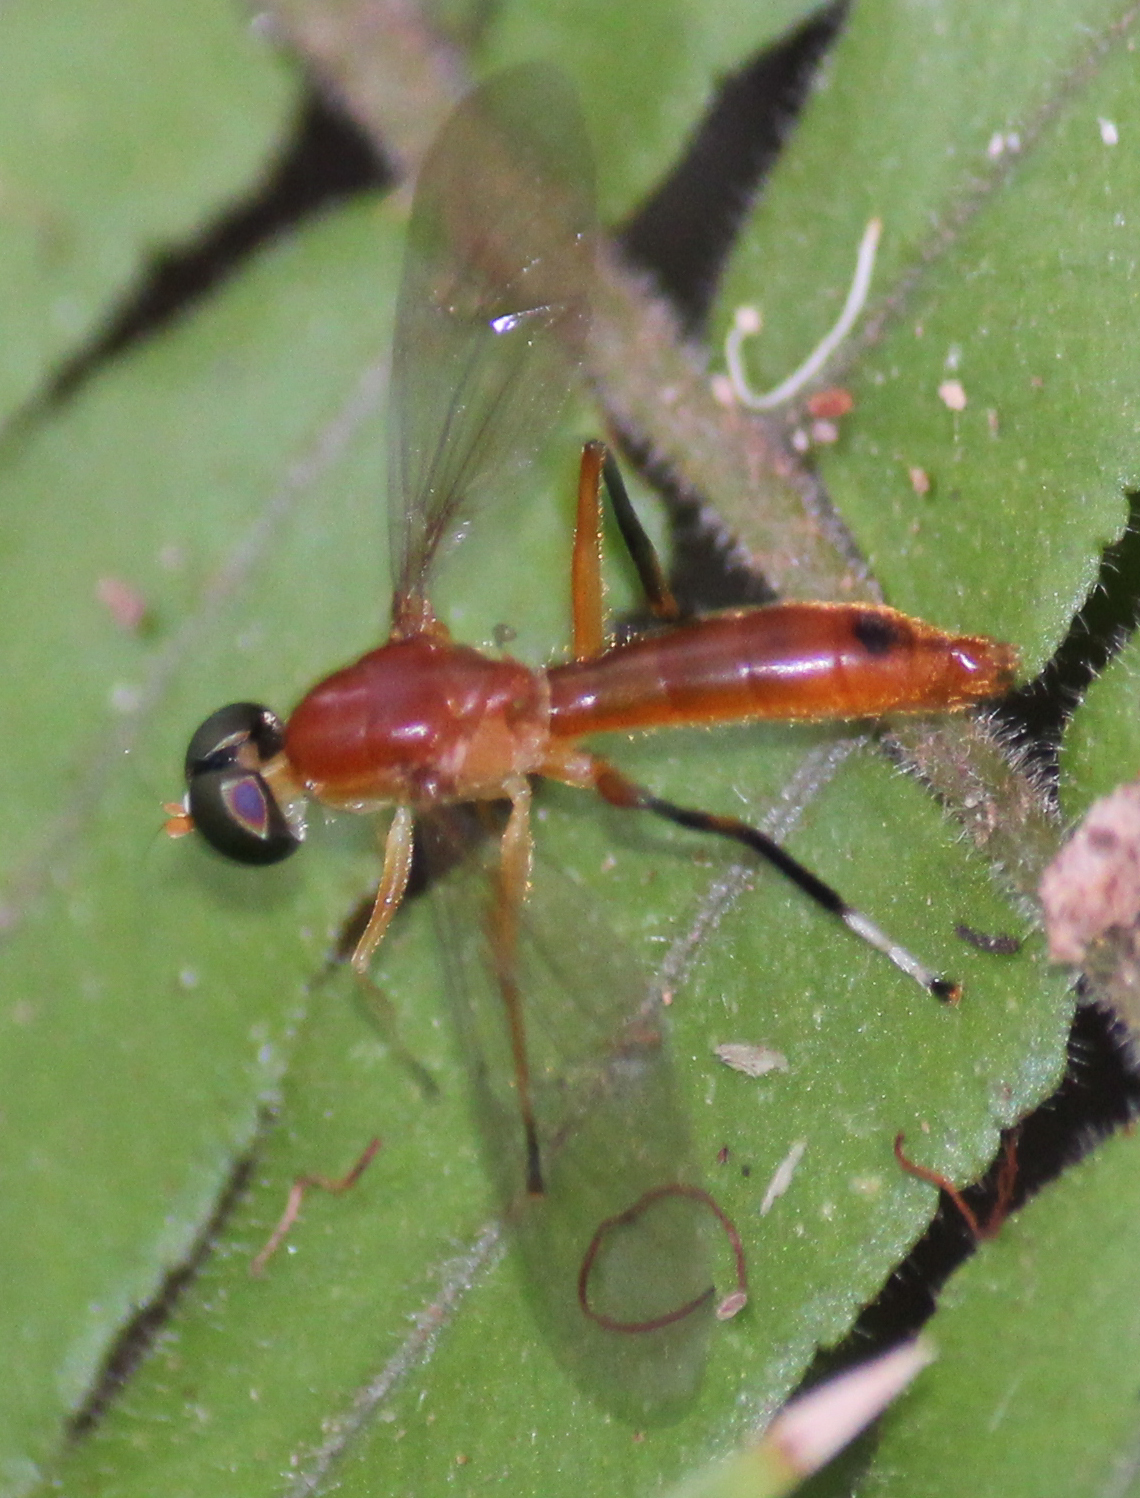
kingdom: Animalia
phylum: Arthropoda
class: Insecta
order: Diptera
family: Stratiomyidae
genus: Ptecticus
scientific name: Ptecticus posticus
